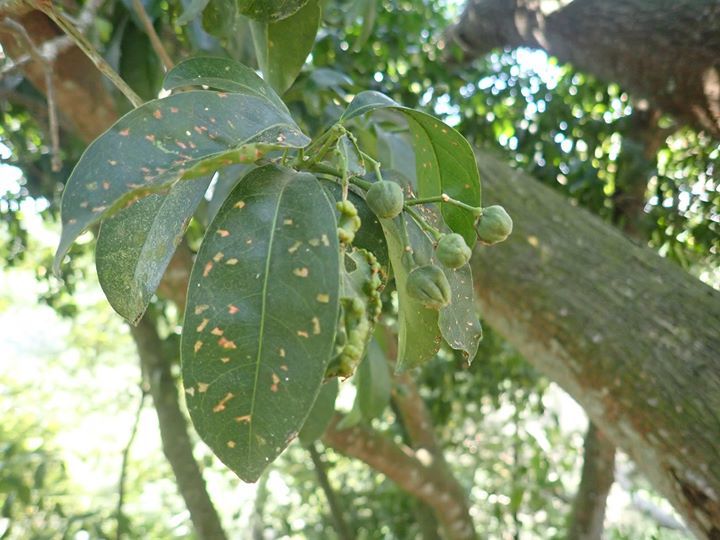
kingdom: Plantae
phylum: Tracheophyta
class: Magnoliopsida
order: Sapindales
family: Rutaceae
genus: Acronychia
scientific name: Acronychia pedunculata
